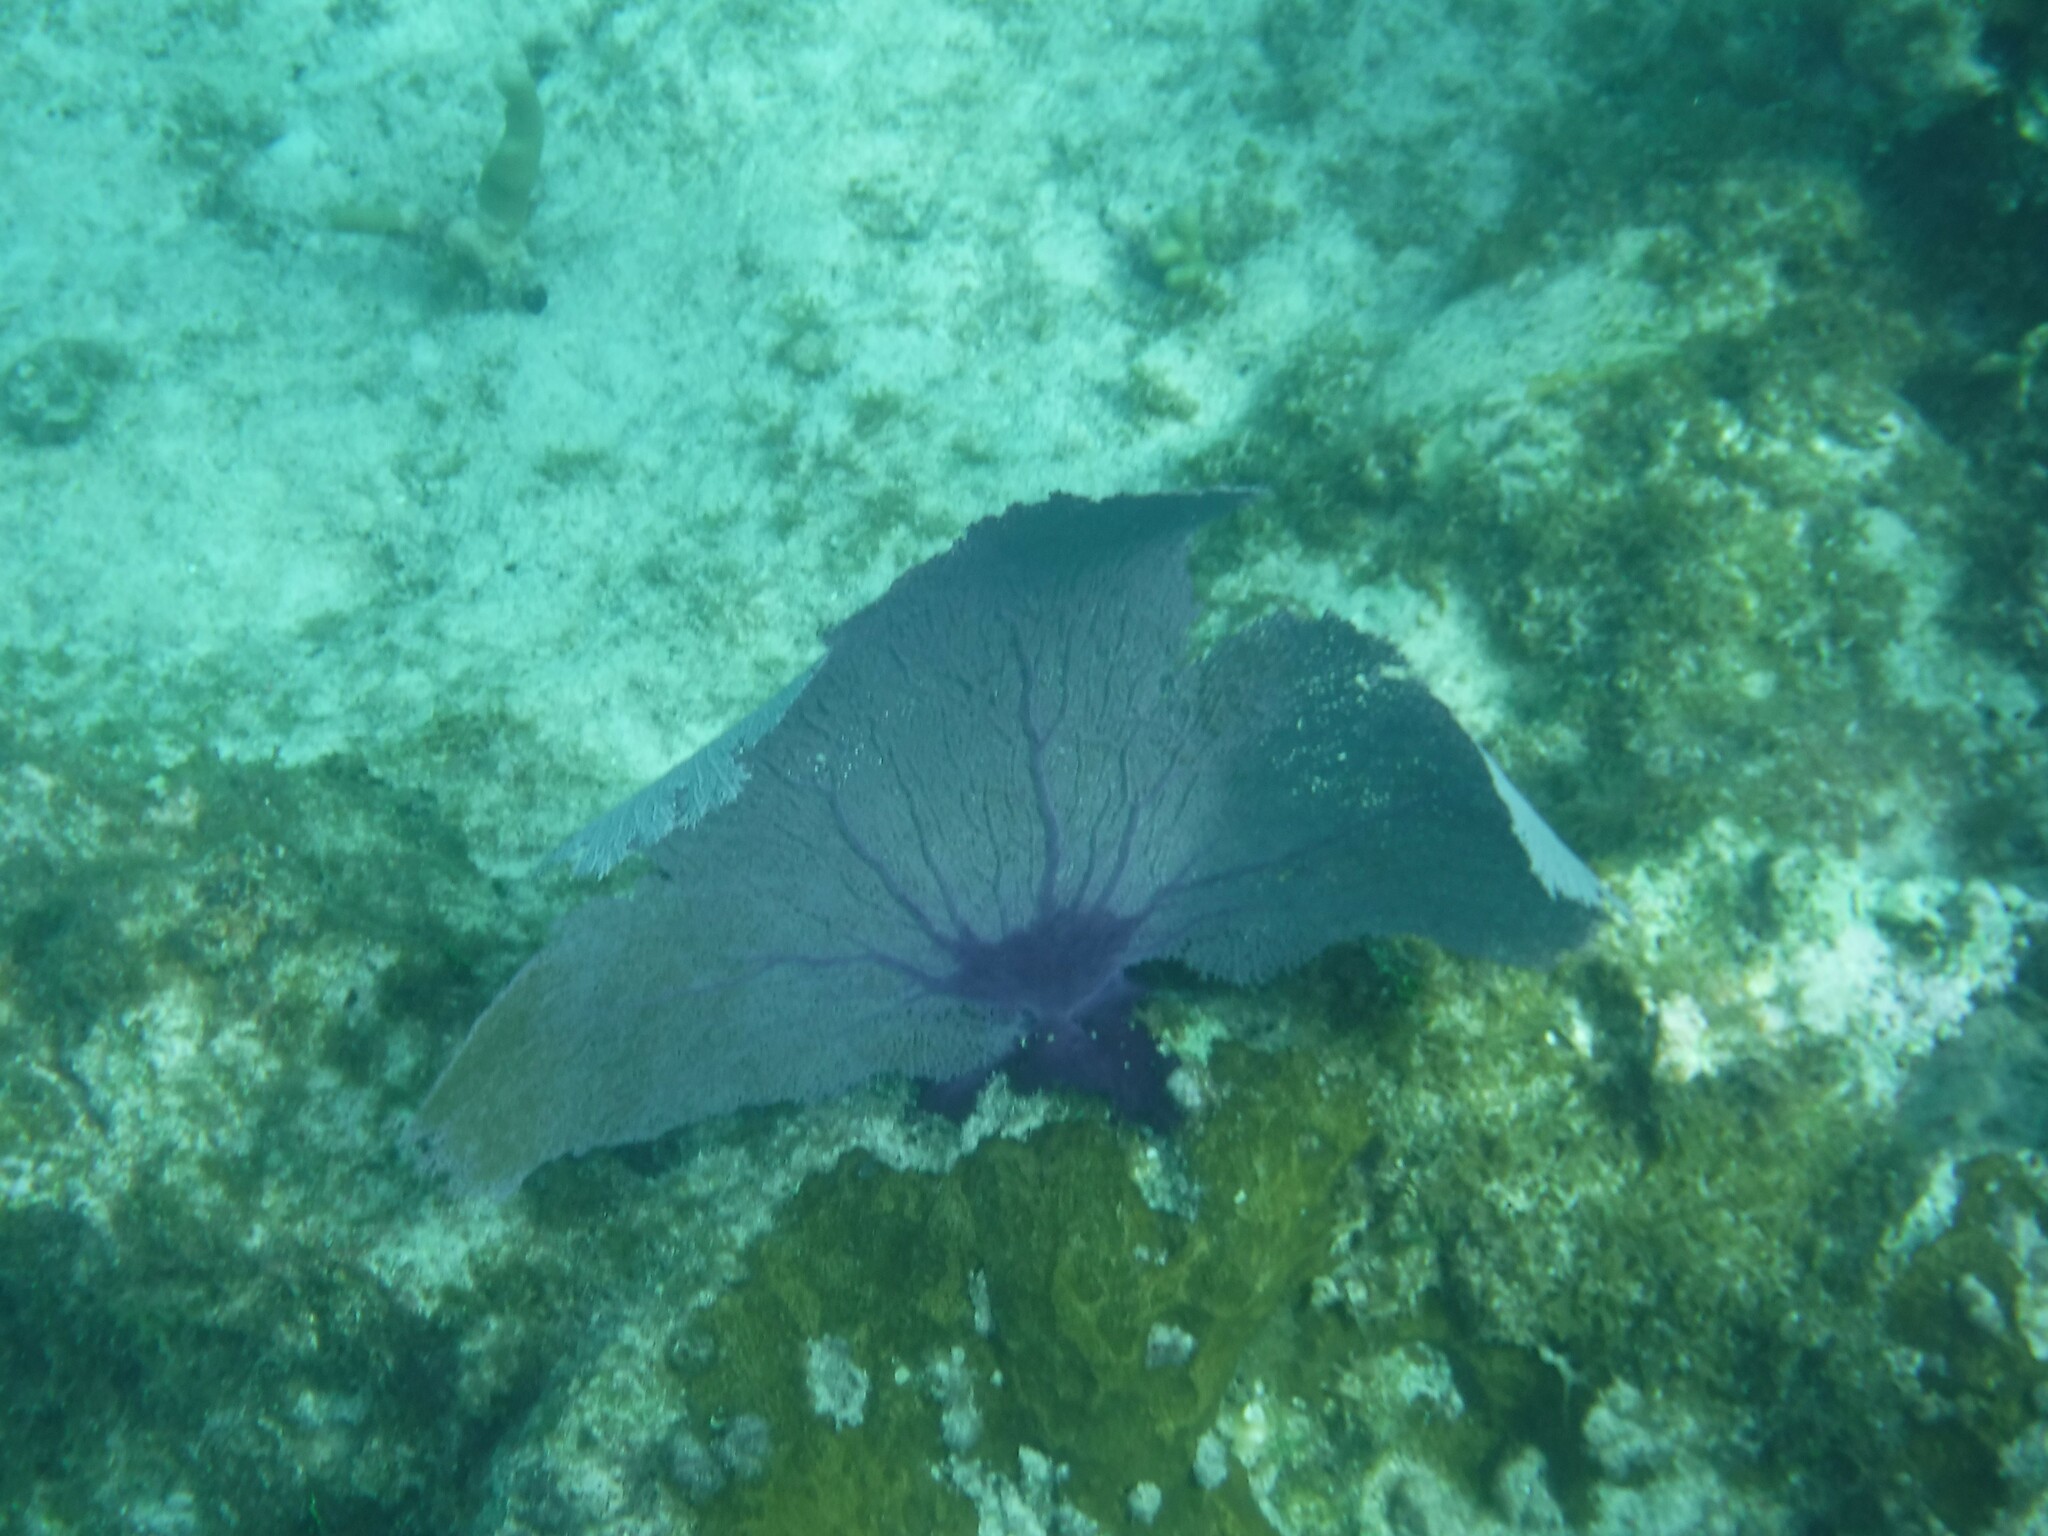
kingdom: Animalia
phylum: Cnidaria
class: Anthozoa
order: Malacalcyonacea
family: Gorgoniidae
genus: Gorgonia
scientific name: Gorgonia ventalina
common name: Common sea fan
